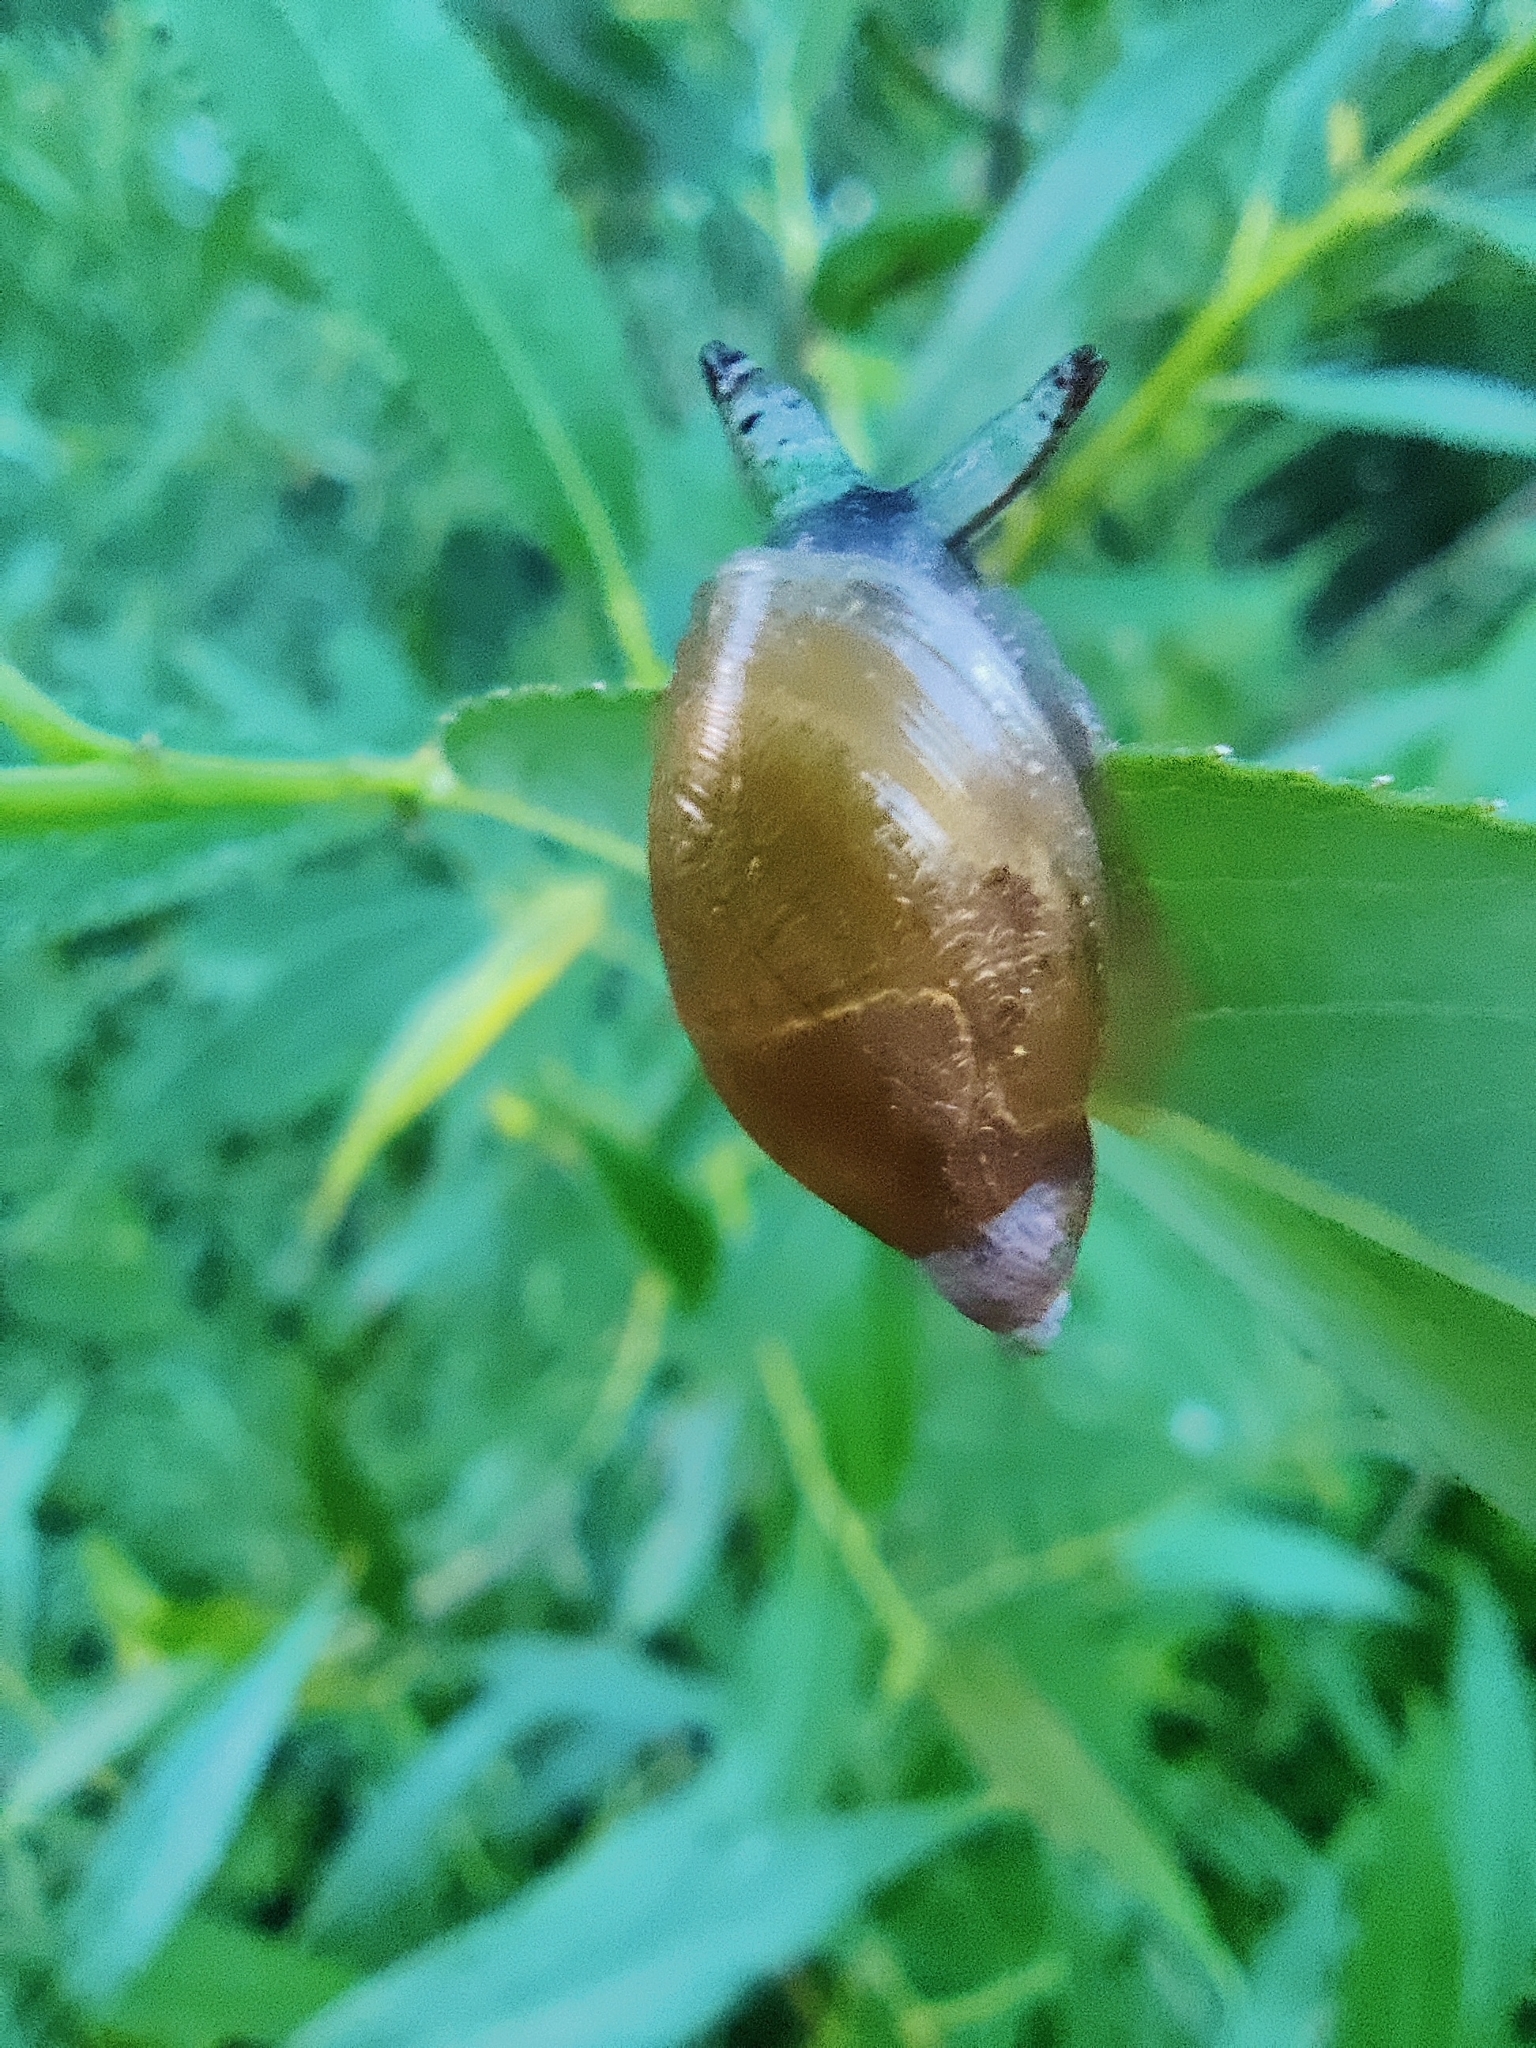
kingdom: Animalia
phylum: Mollusca
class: Gastropoda
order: Stylommatophora
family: Succineidae
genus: Succinea
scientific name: Succinea putris
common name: European ambersnail
